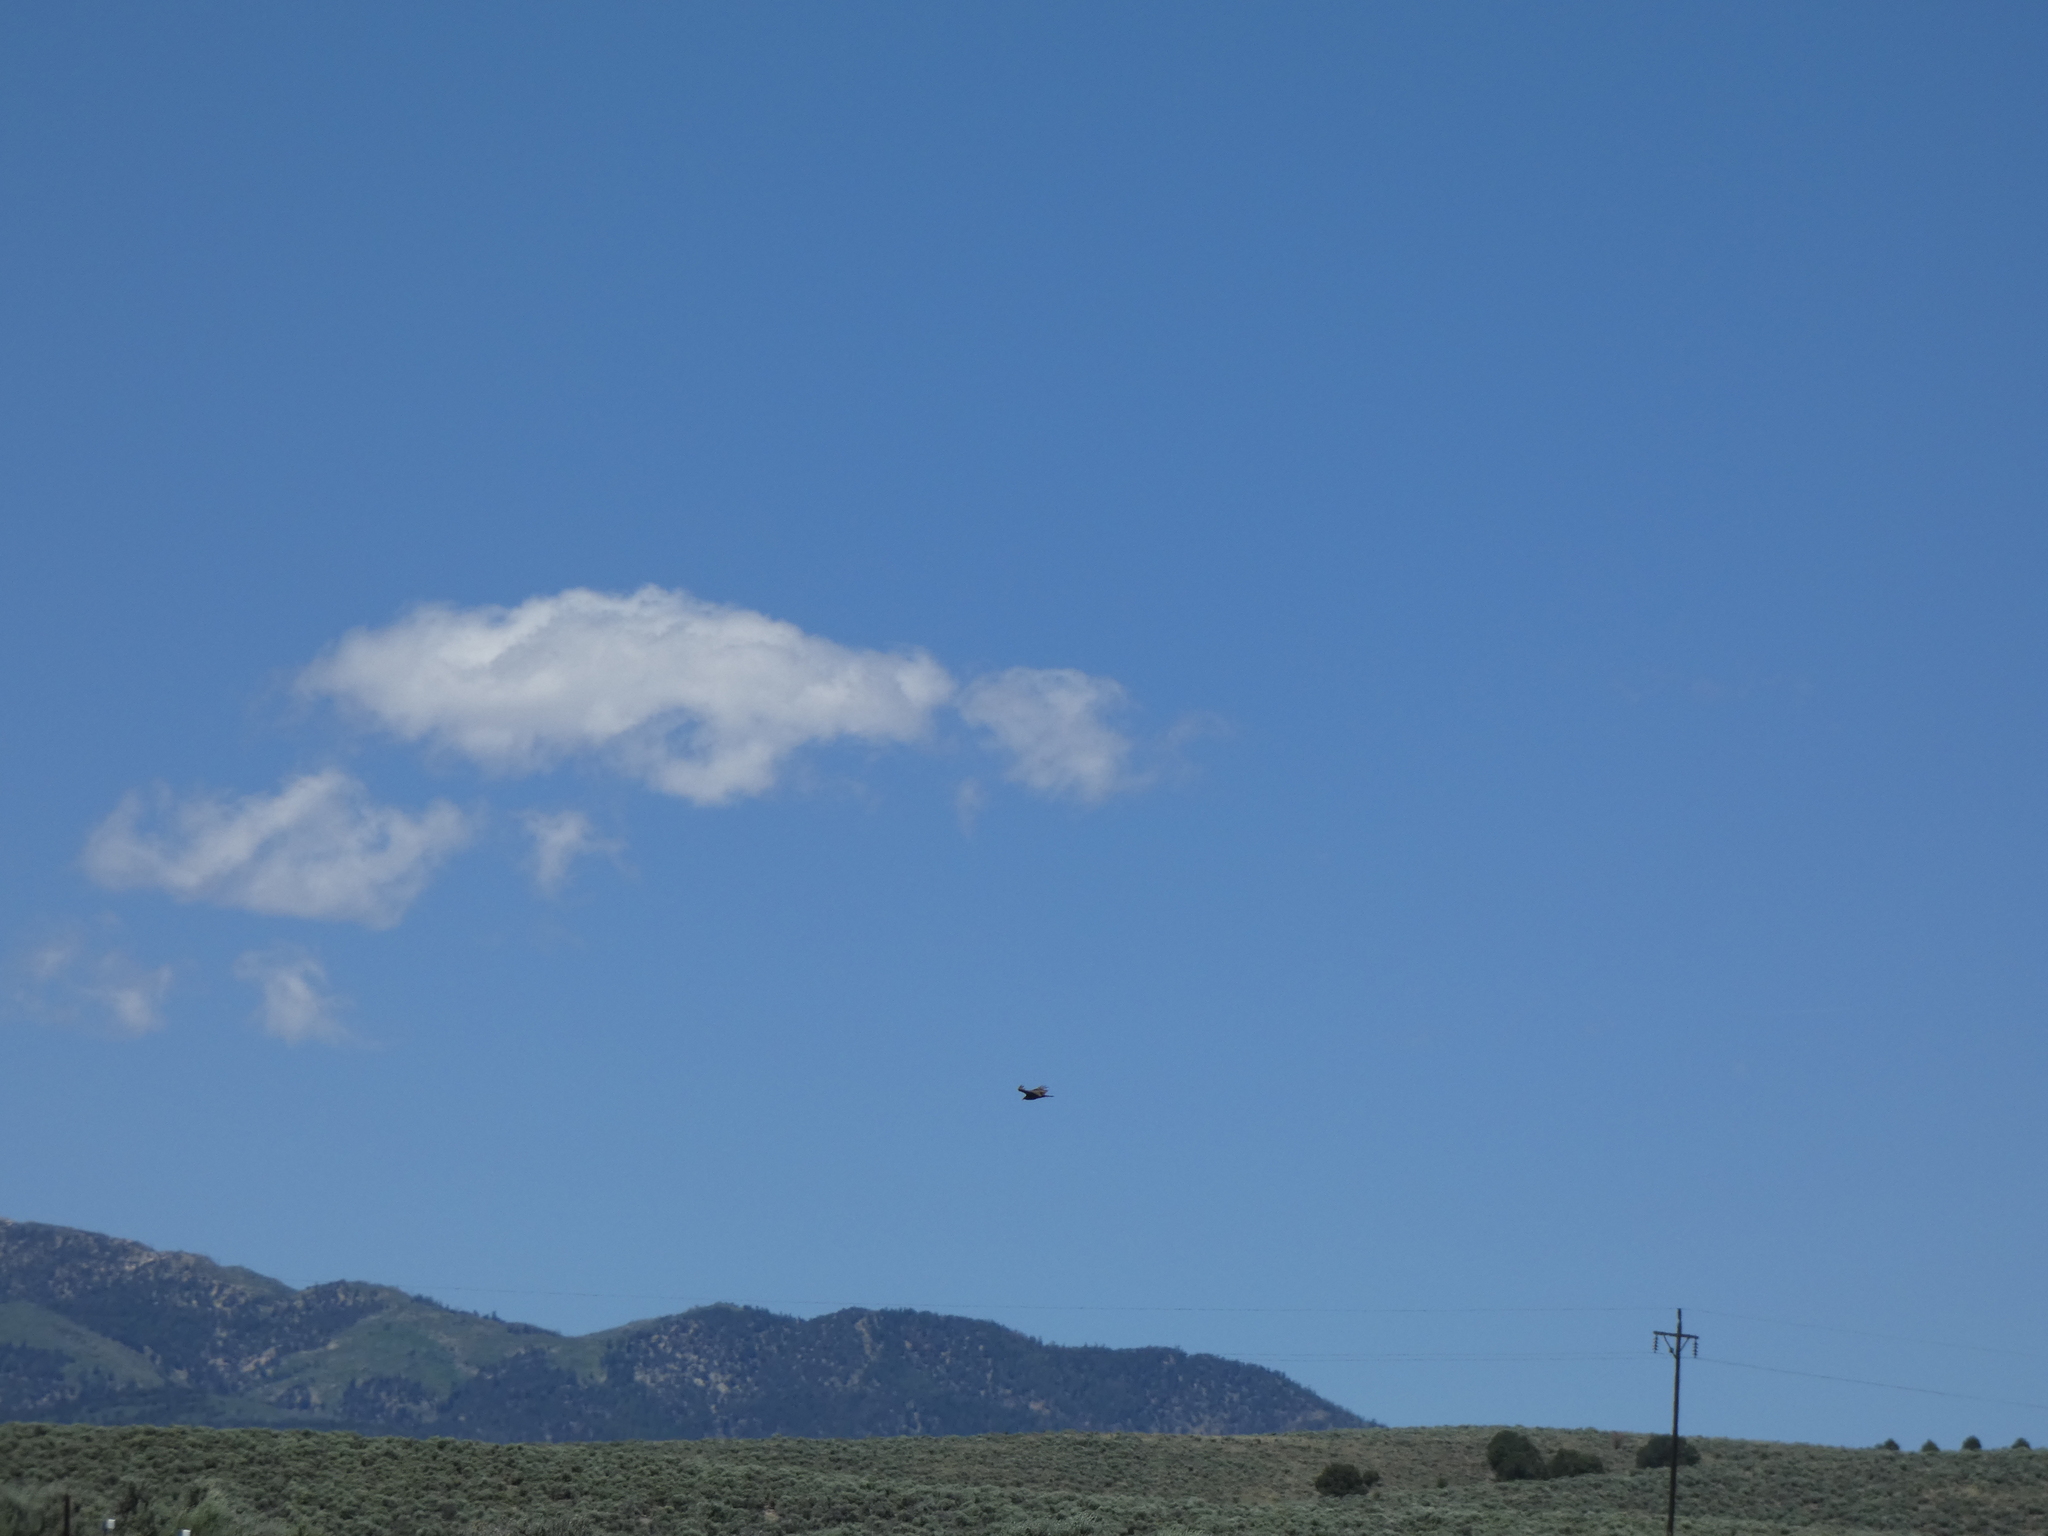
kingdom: Animalia
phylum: Chordata
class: Aves
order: Accipitriformes
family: Cathartidae
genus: Cathartes
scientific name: Cathartes aura
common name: Turkey vulture
